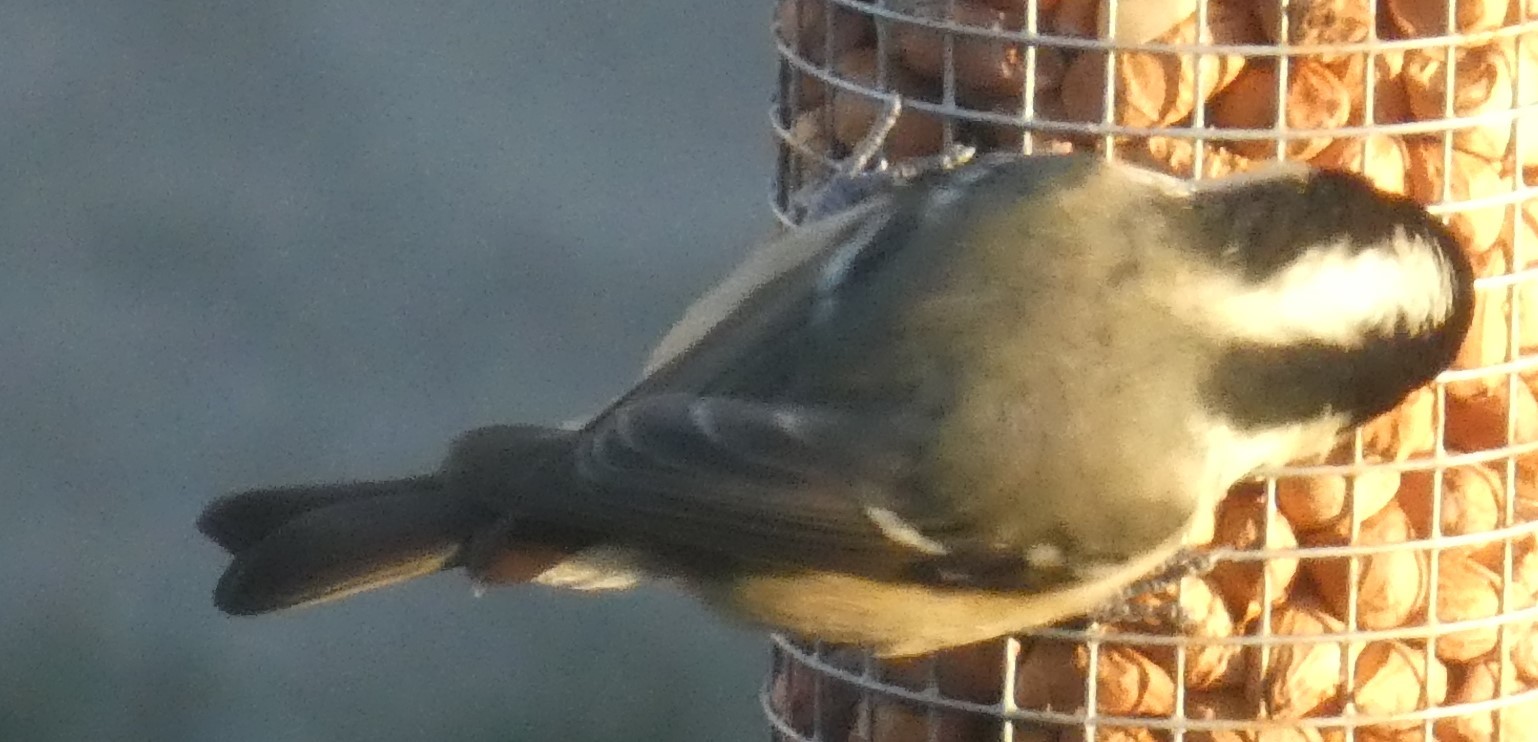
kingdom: Animalia
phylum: Chordata
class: Aves
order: Passeriformes
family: Paridae
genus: Periparus
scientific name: Periparus ater
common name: Coal tit
